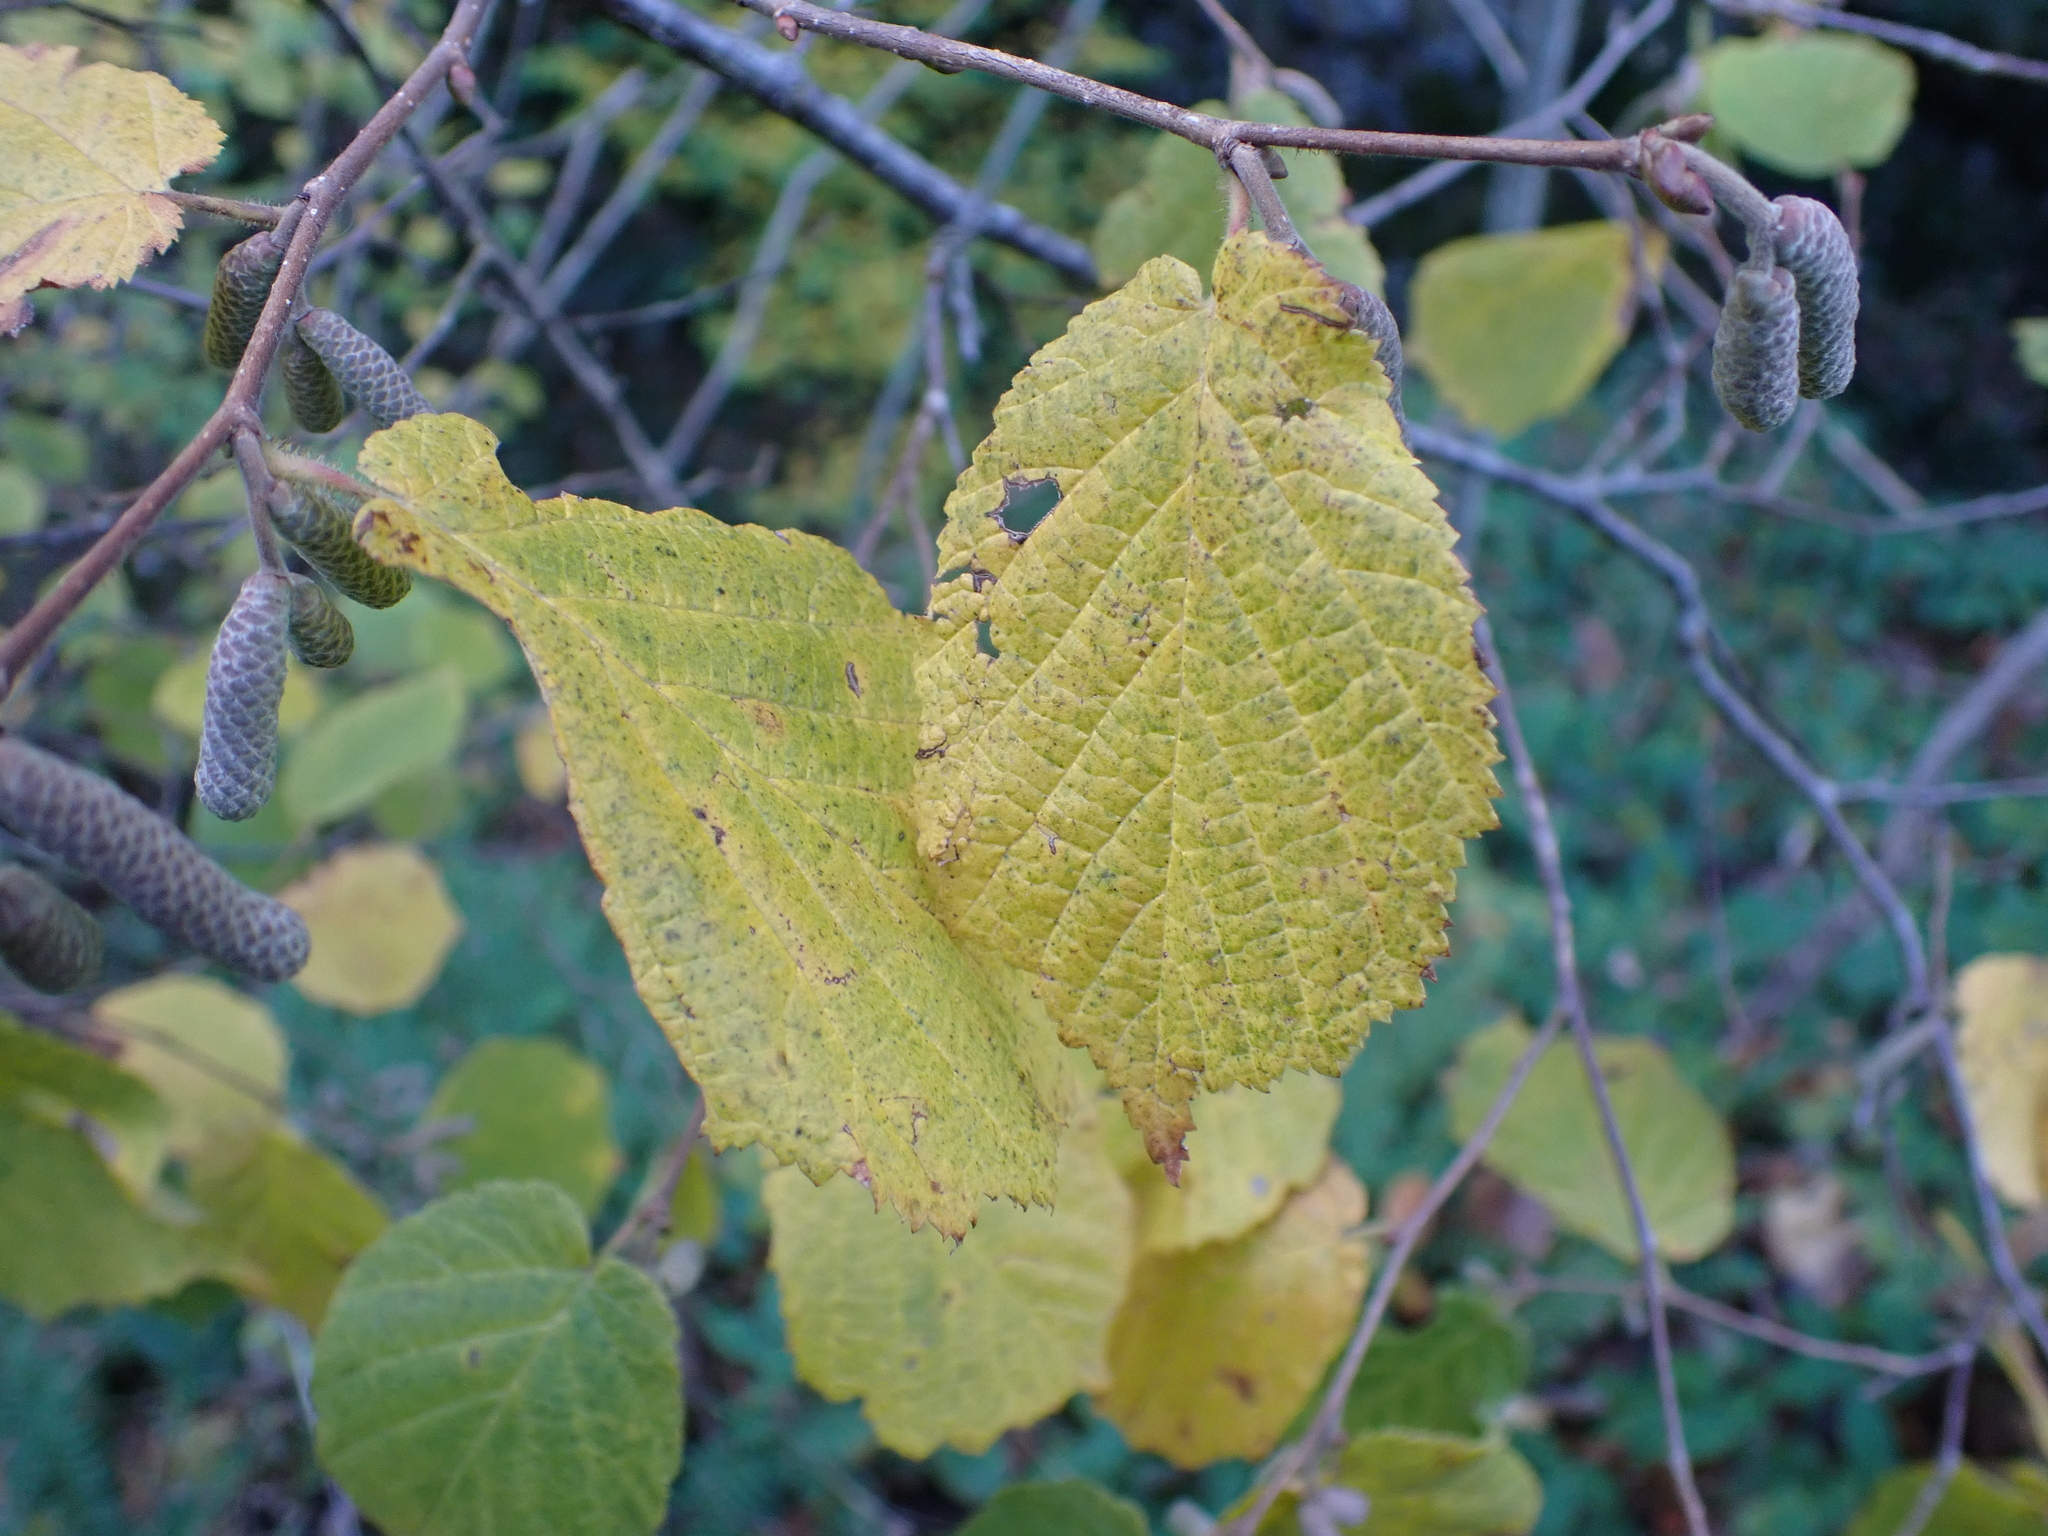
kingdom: Plantae
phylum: Tracheophyta
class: Magnoliopsida
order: Fagales
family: Betulaceae
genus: Corylus
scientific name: Corylus avellana
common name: European hazel
